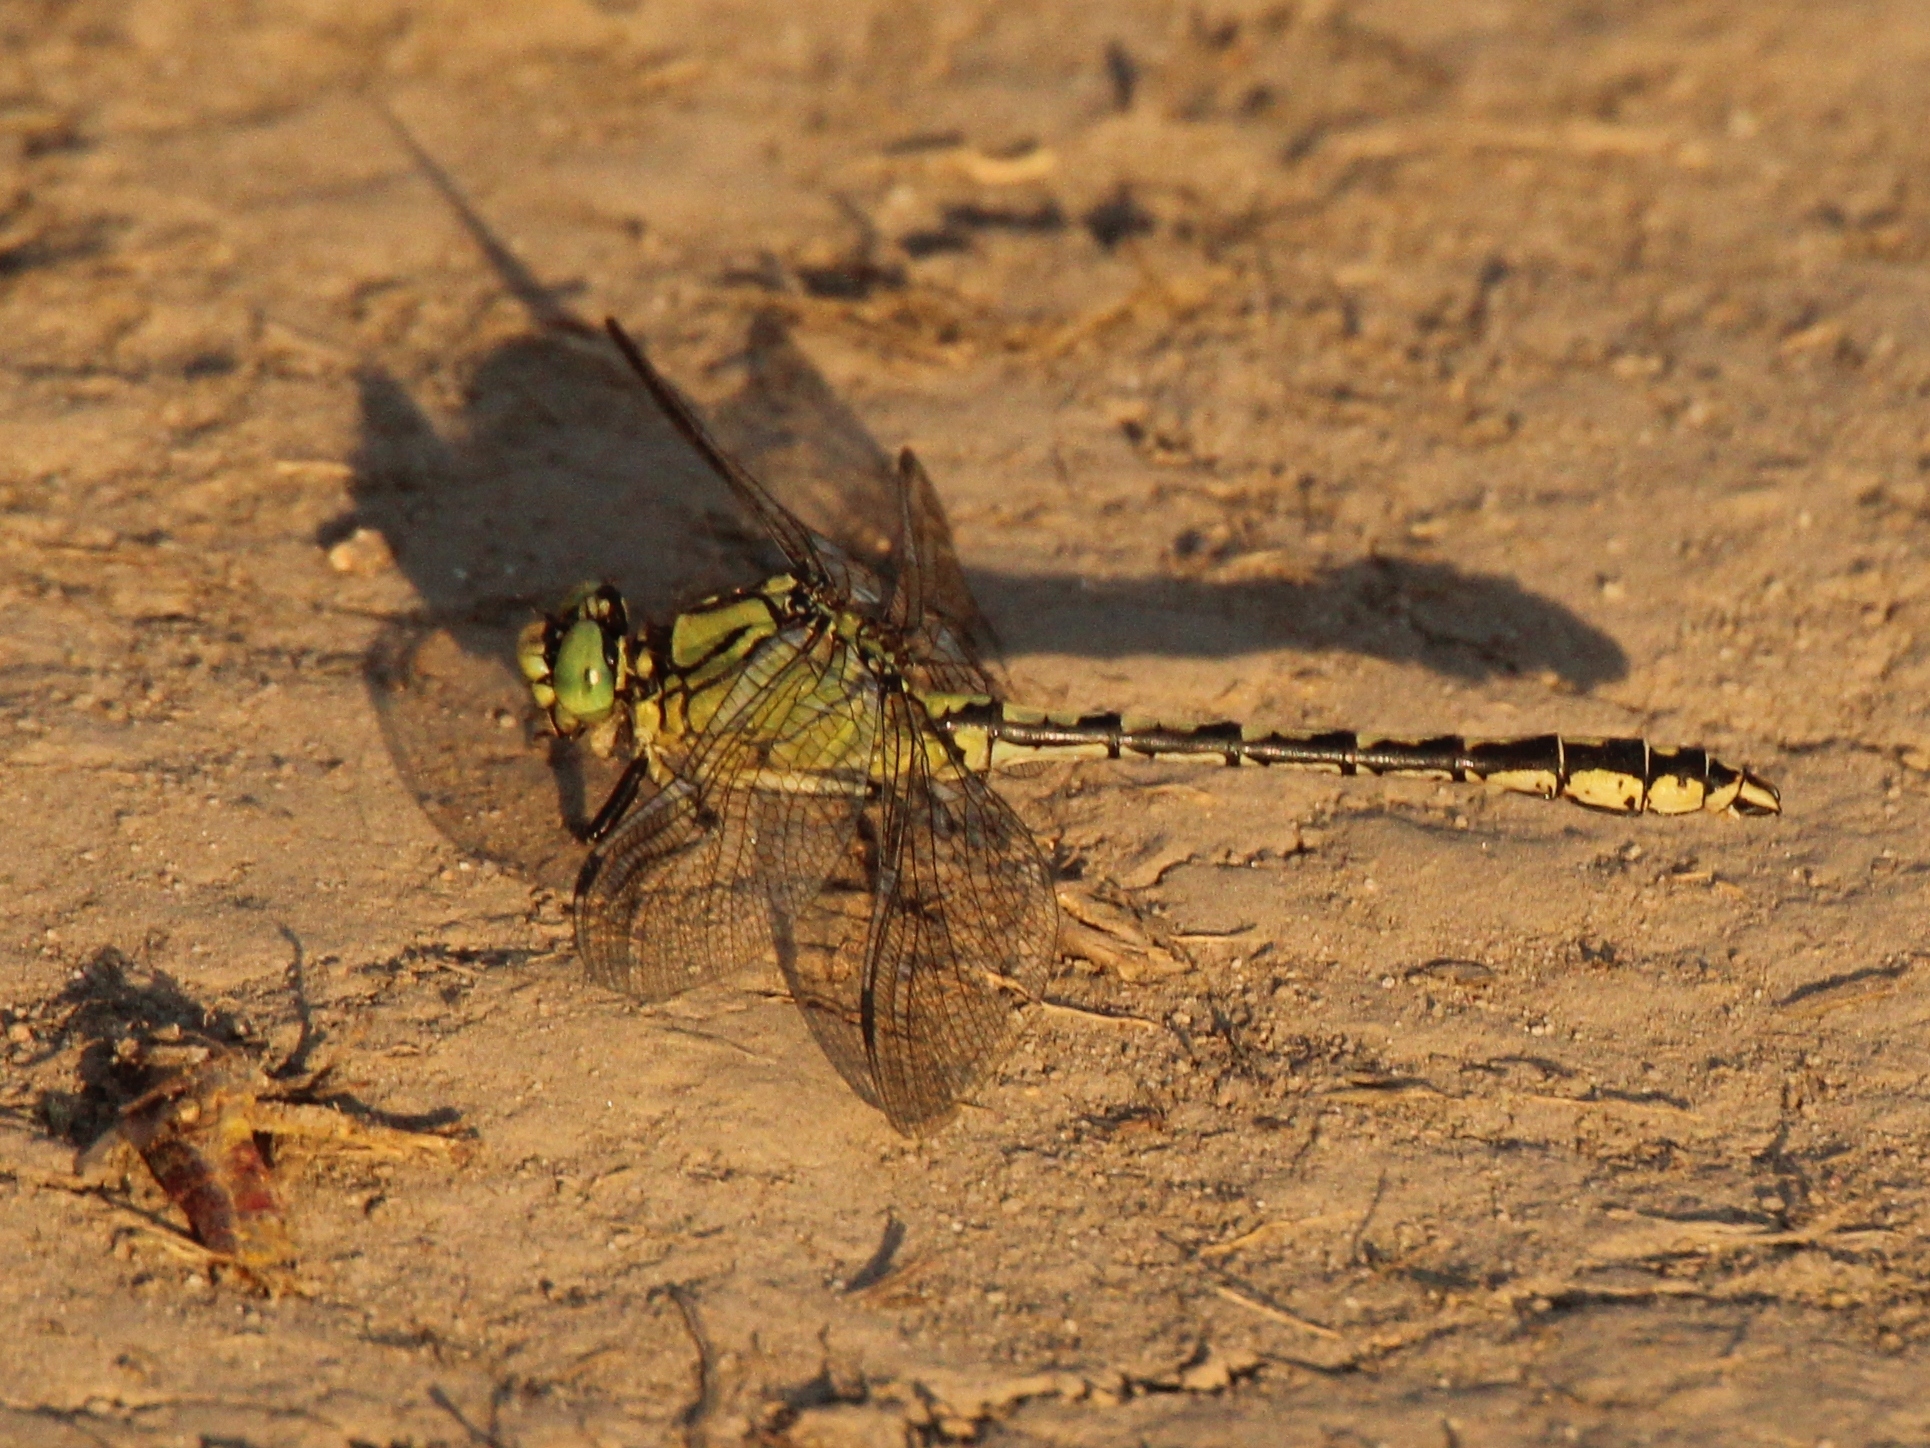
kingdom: Animalia
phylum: Arthropoda
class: Insecta
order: Odonata
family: Gomphidae
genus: Ophiogomphus
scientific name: Ophiogomphus cecilia
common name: Green snaketail
